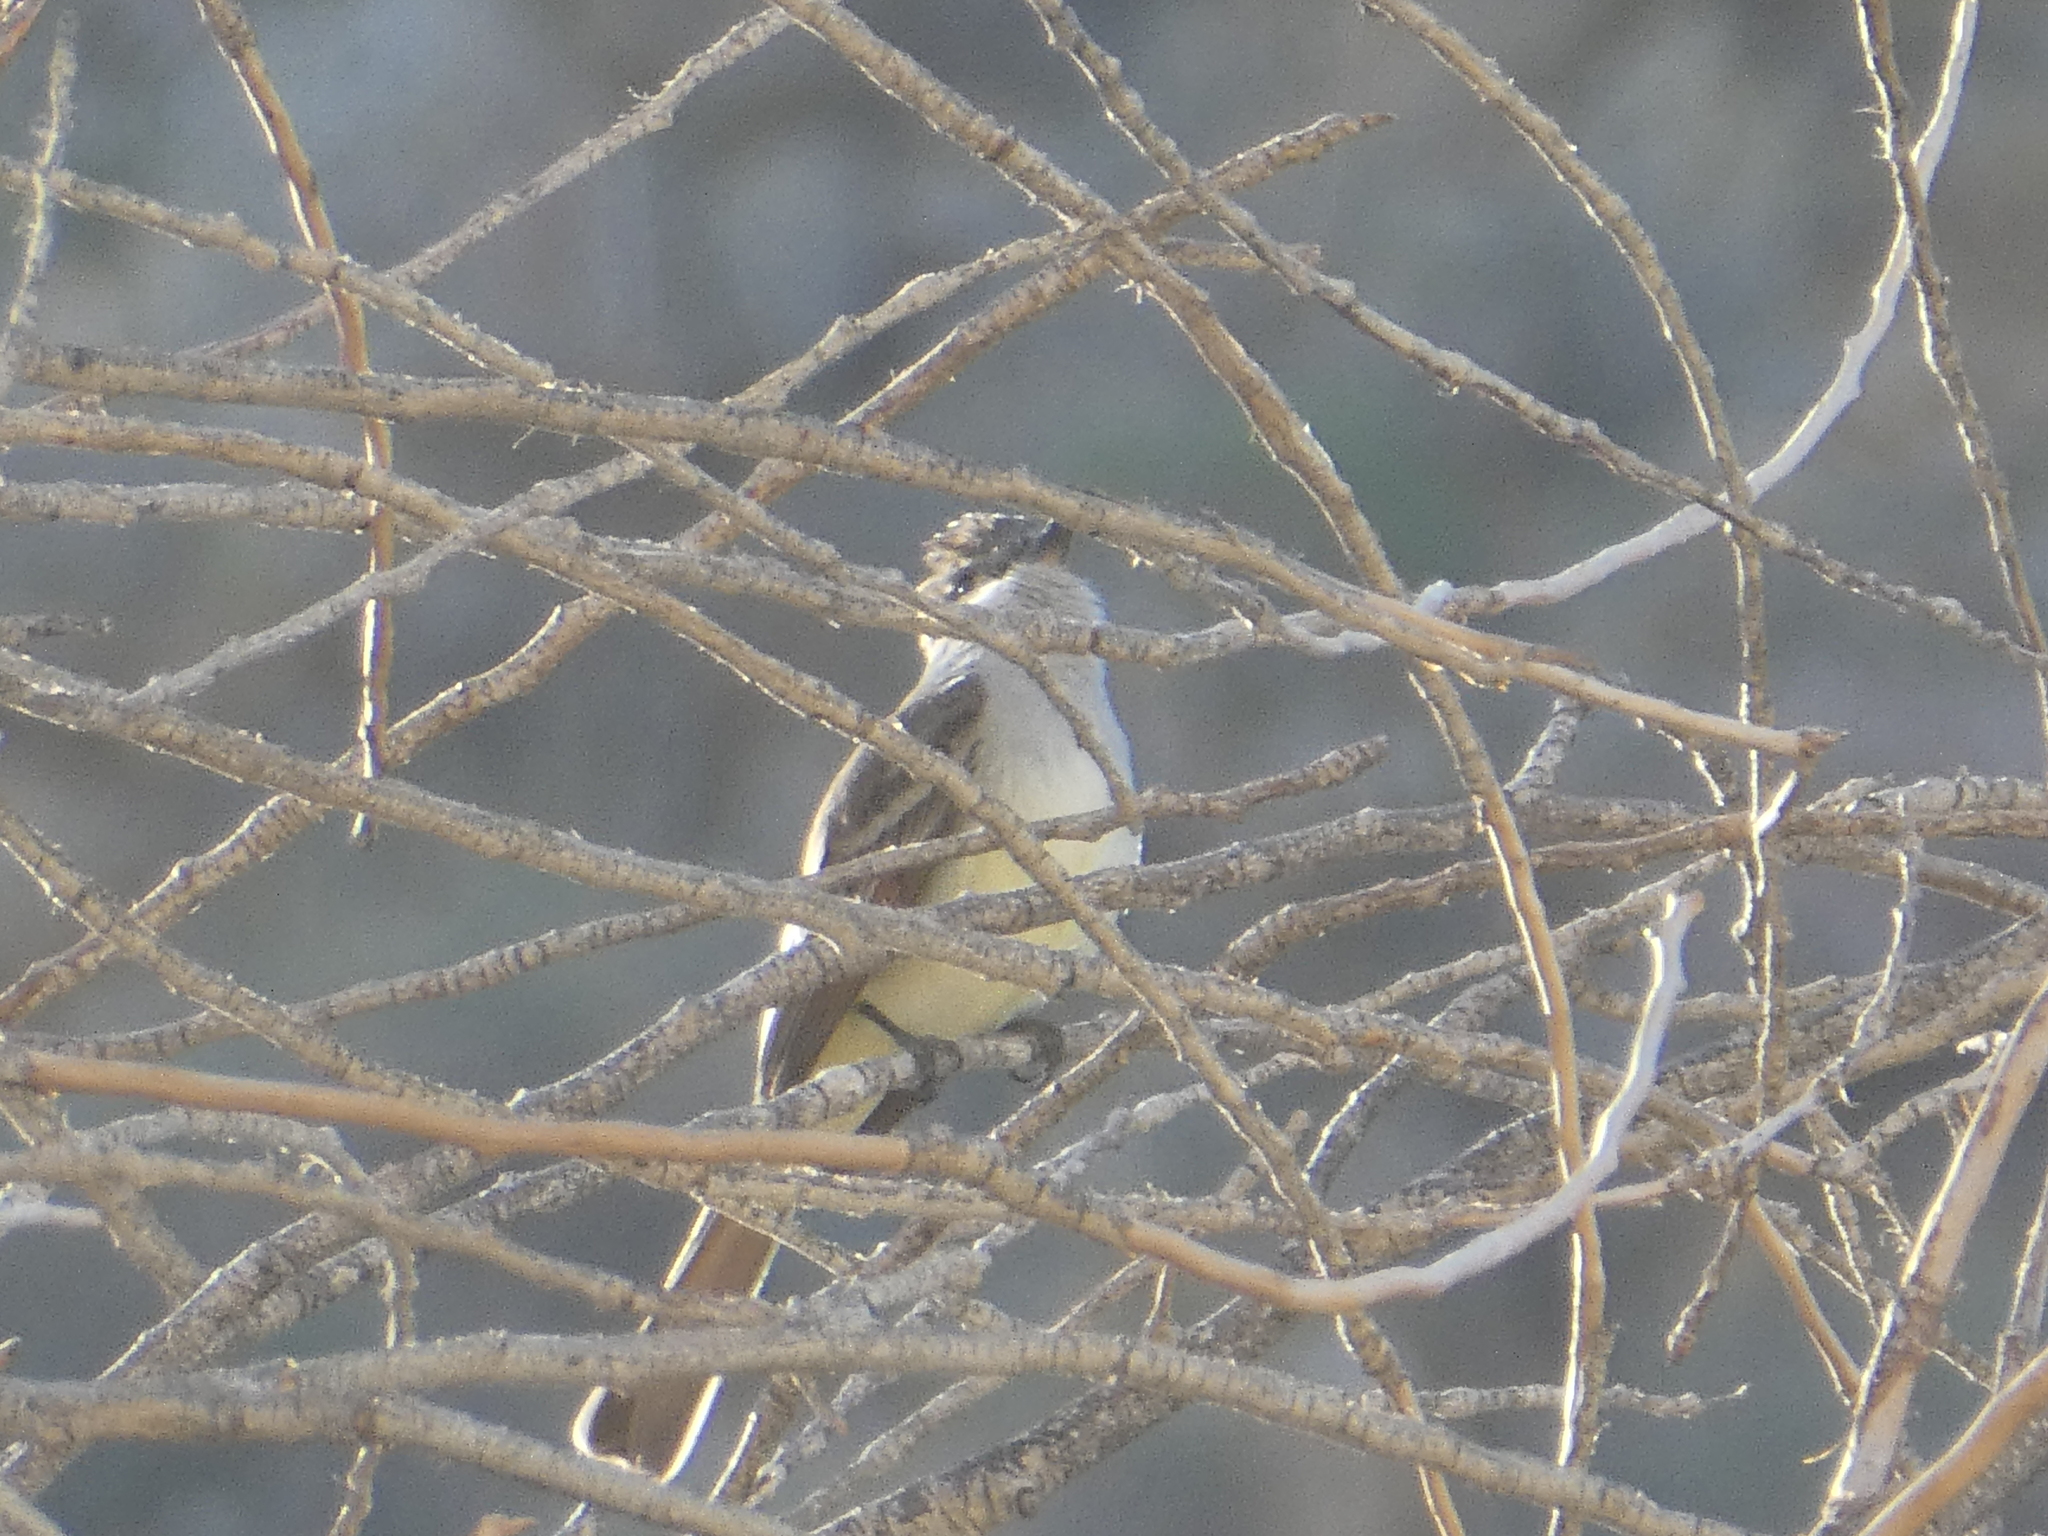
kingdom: Animalia
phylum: Chordata
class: Aves
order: Passeriformes
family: Tyrannidae
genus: Myiarchus
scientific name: Myiarchus cinerascens
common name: Ash-throated flycatcher
